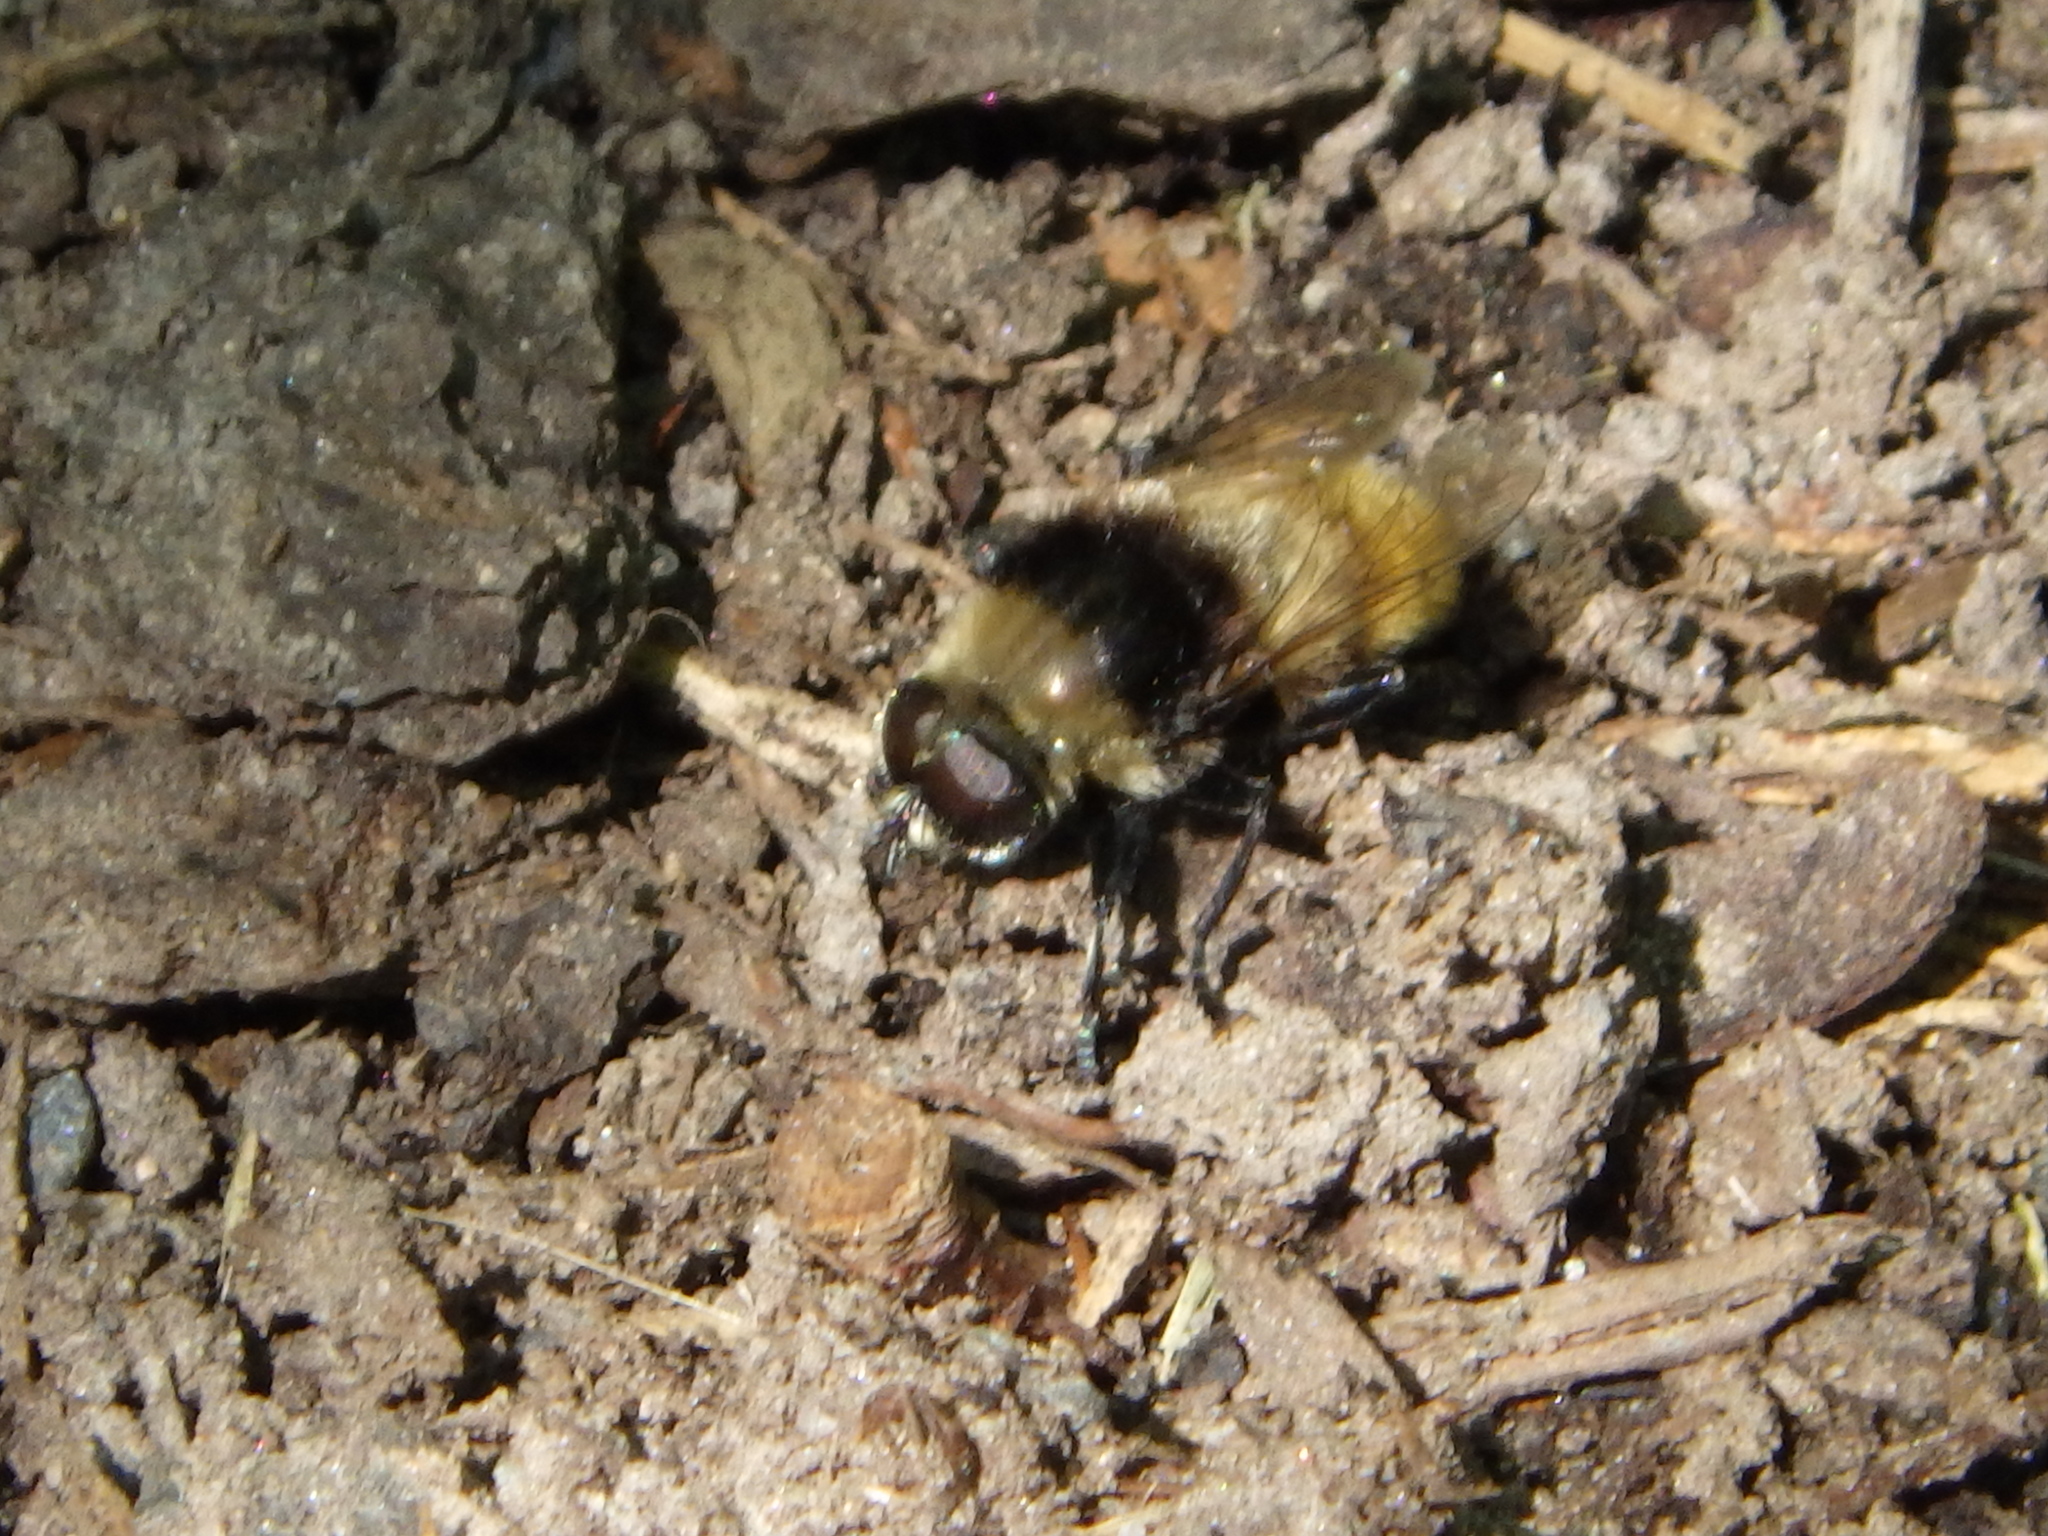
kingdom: Animalia
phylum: Arthropoda
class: Insecta
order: Diptera
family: Syrphidae
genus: Merodon
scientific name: Merodon equestris
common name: Greater bulb-fly
